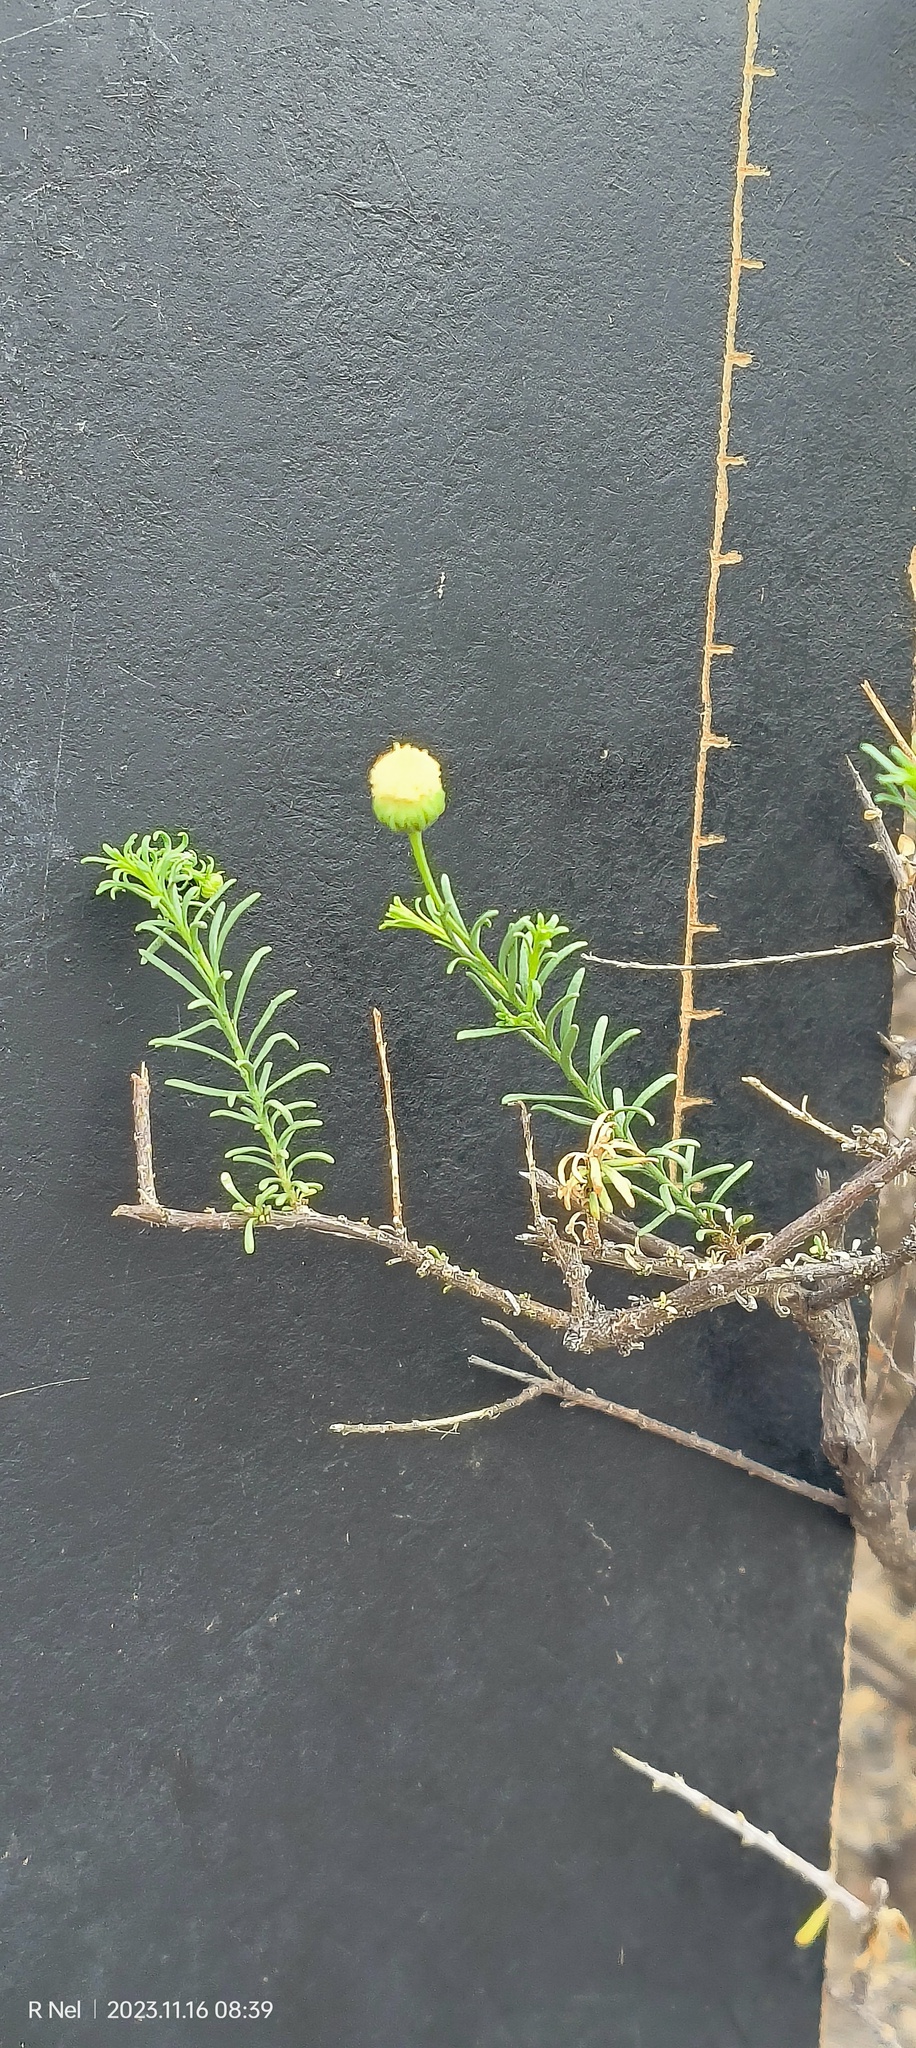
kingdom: Plantae
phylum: Tracheophyta
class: Magnoliopsida
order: Asterales
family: Asteraceae
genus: Chrysocoma
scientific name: Chrysocoma ciliata
